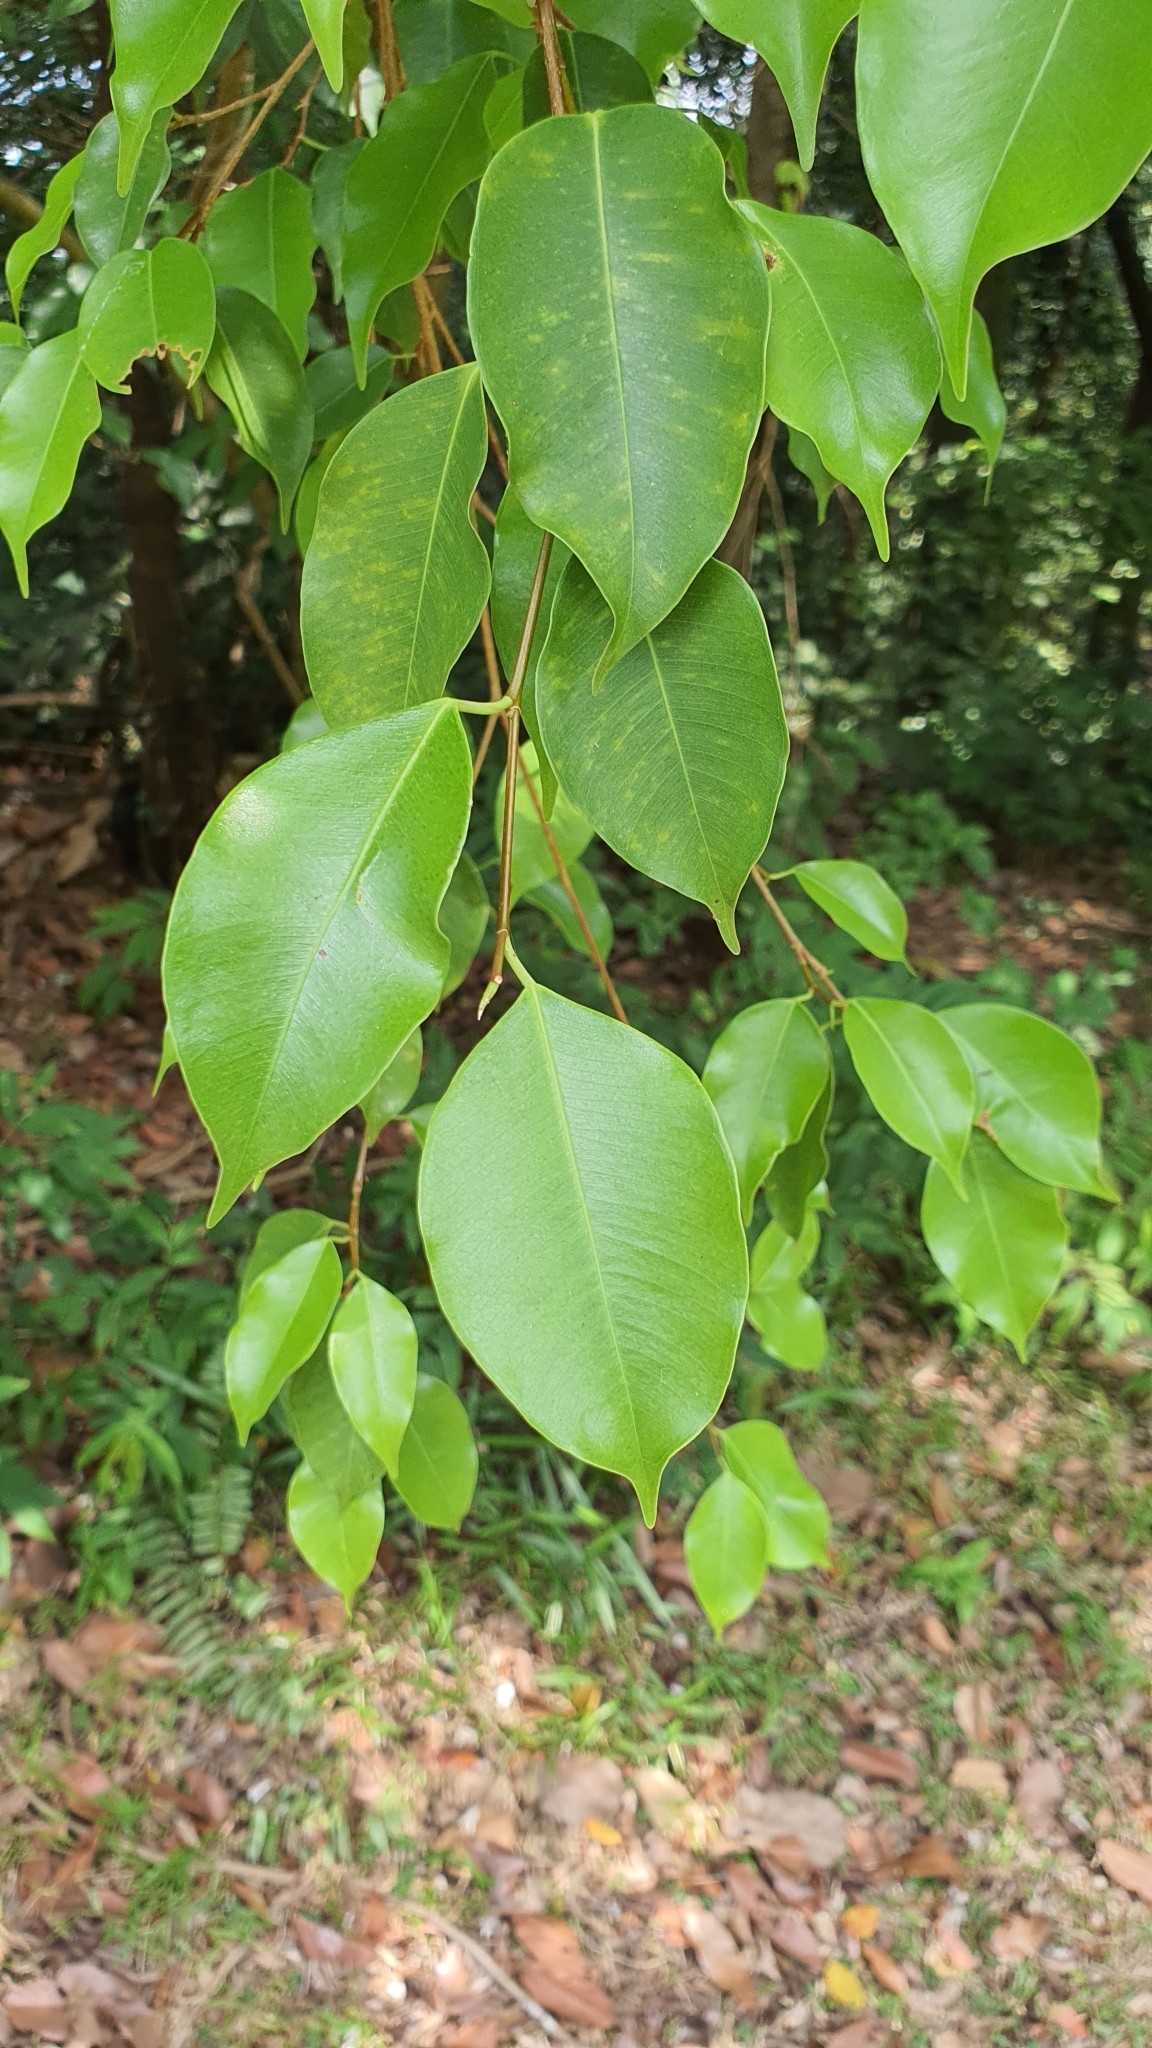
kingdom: Plantae
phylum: Tracheophyta
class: Magnoliopsida
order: Rosales
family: Moraceae
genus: Ficus
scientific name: Ficus benjamina
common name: Weeping fig
